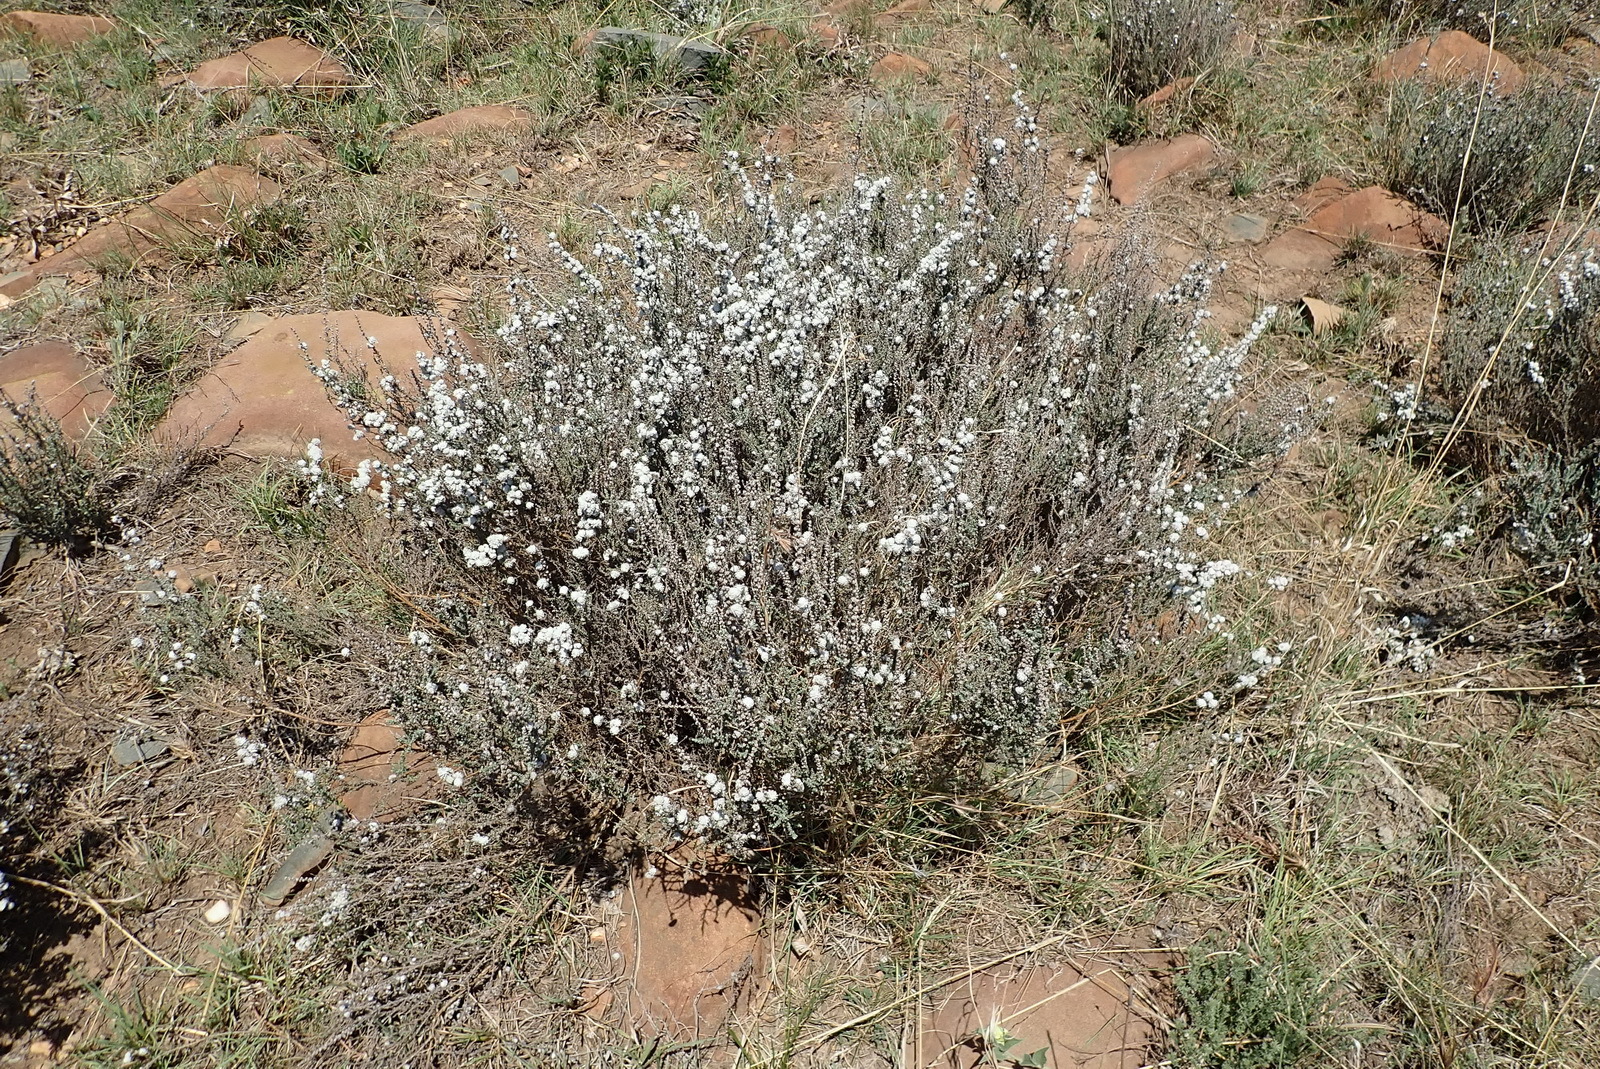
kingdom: Plantae
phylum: Tracheophyta
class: Magnoliopsida
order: Asterales
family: Asteraceae
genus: Seriphium
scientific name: Seriphium
